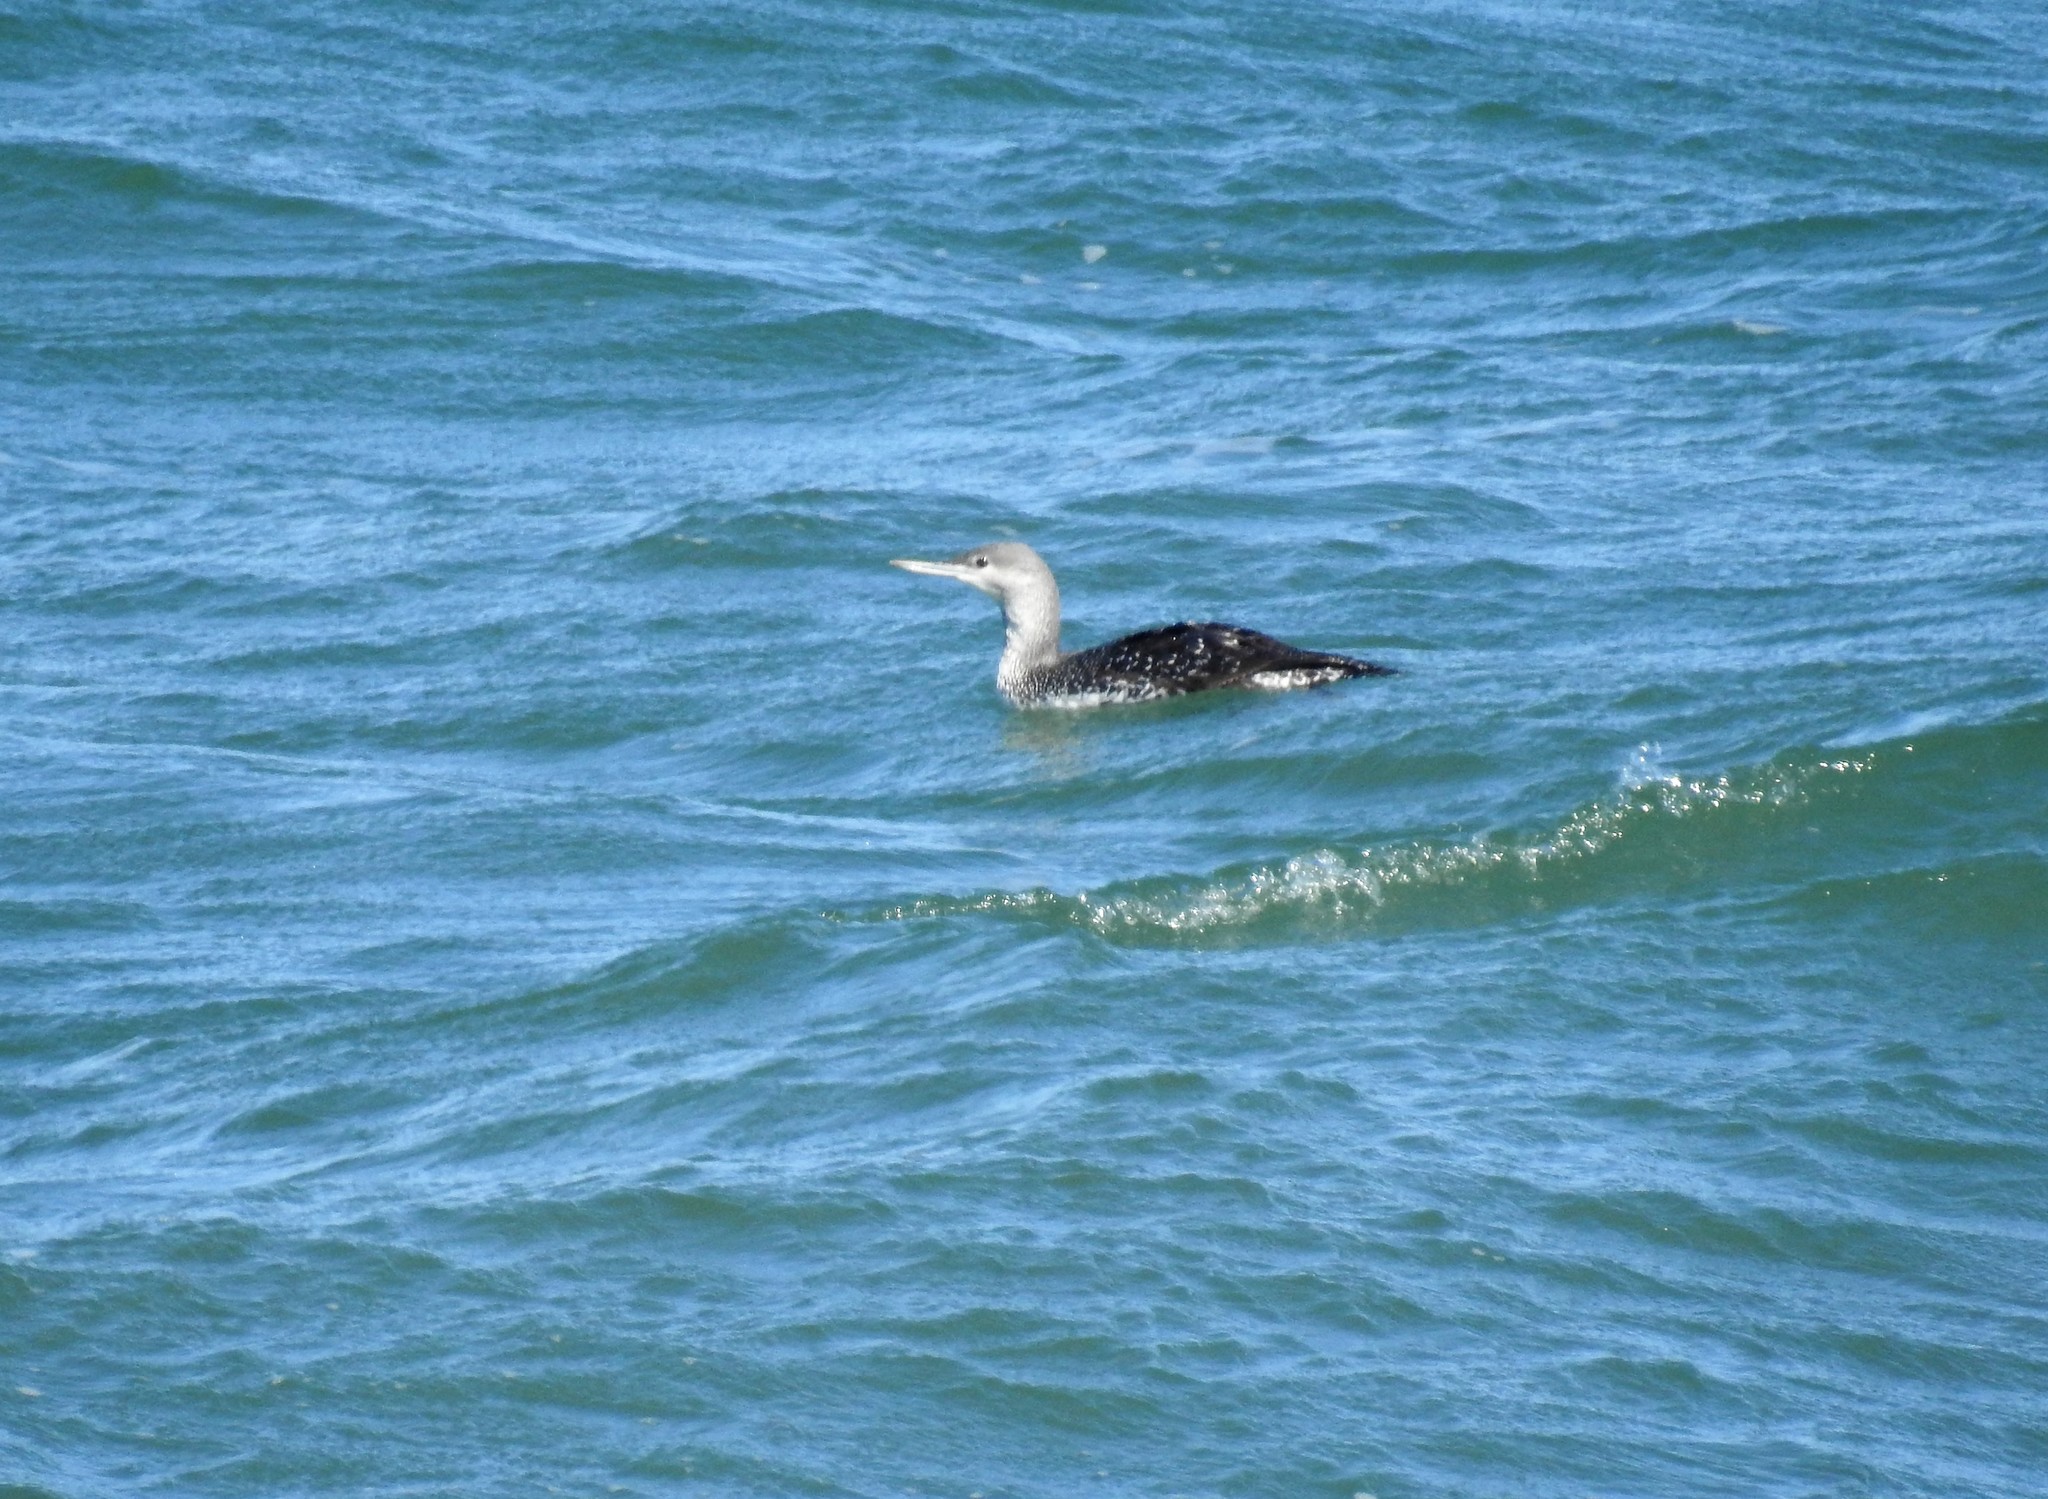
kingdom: Animalia
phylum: Chordata
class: Aves
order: Gaviiformes
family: Gaviidae
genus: Gavia
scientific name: Gavia stellata
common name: Red-throated loon
